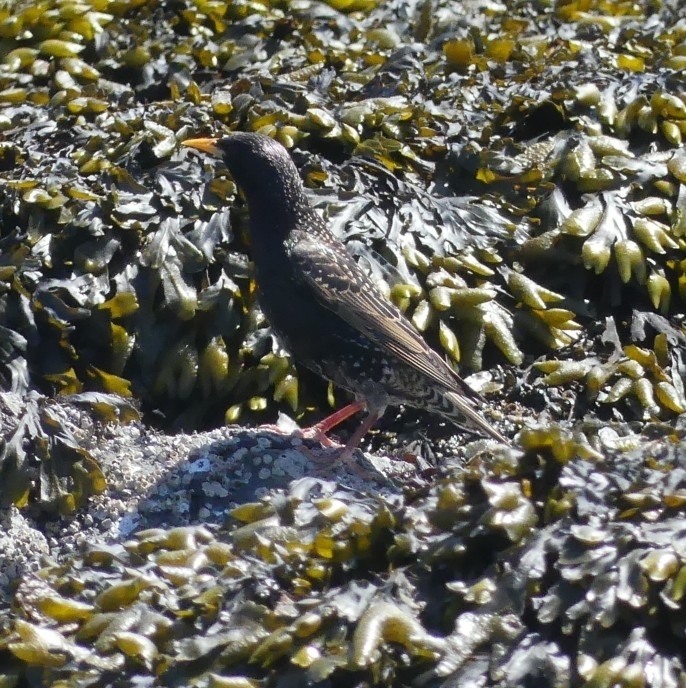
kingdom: Animalia
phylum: Chordata
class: Aves
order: Passeriformes
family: Sturnidae
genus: Sturnus
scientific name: Sturnus vulgaris
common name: Common starling
